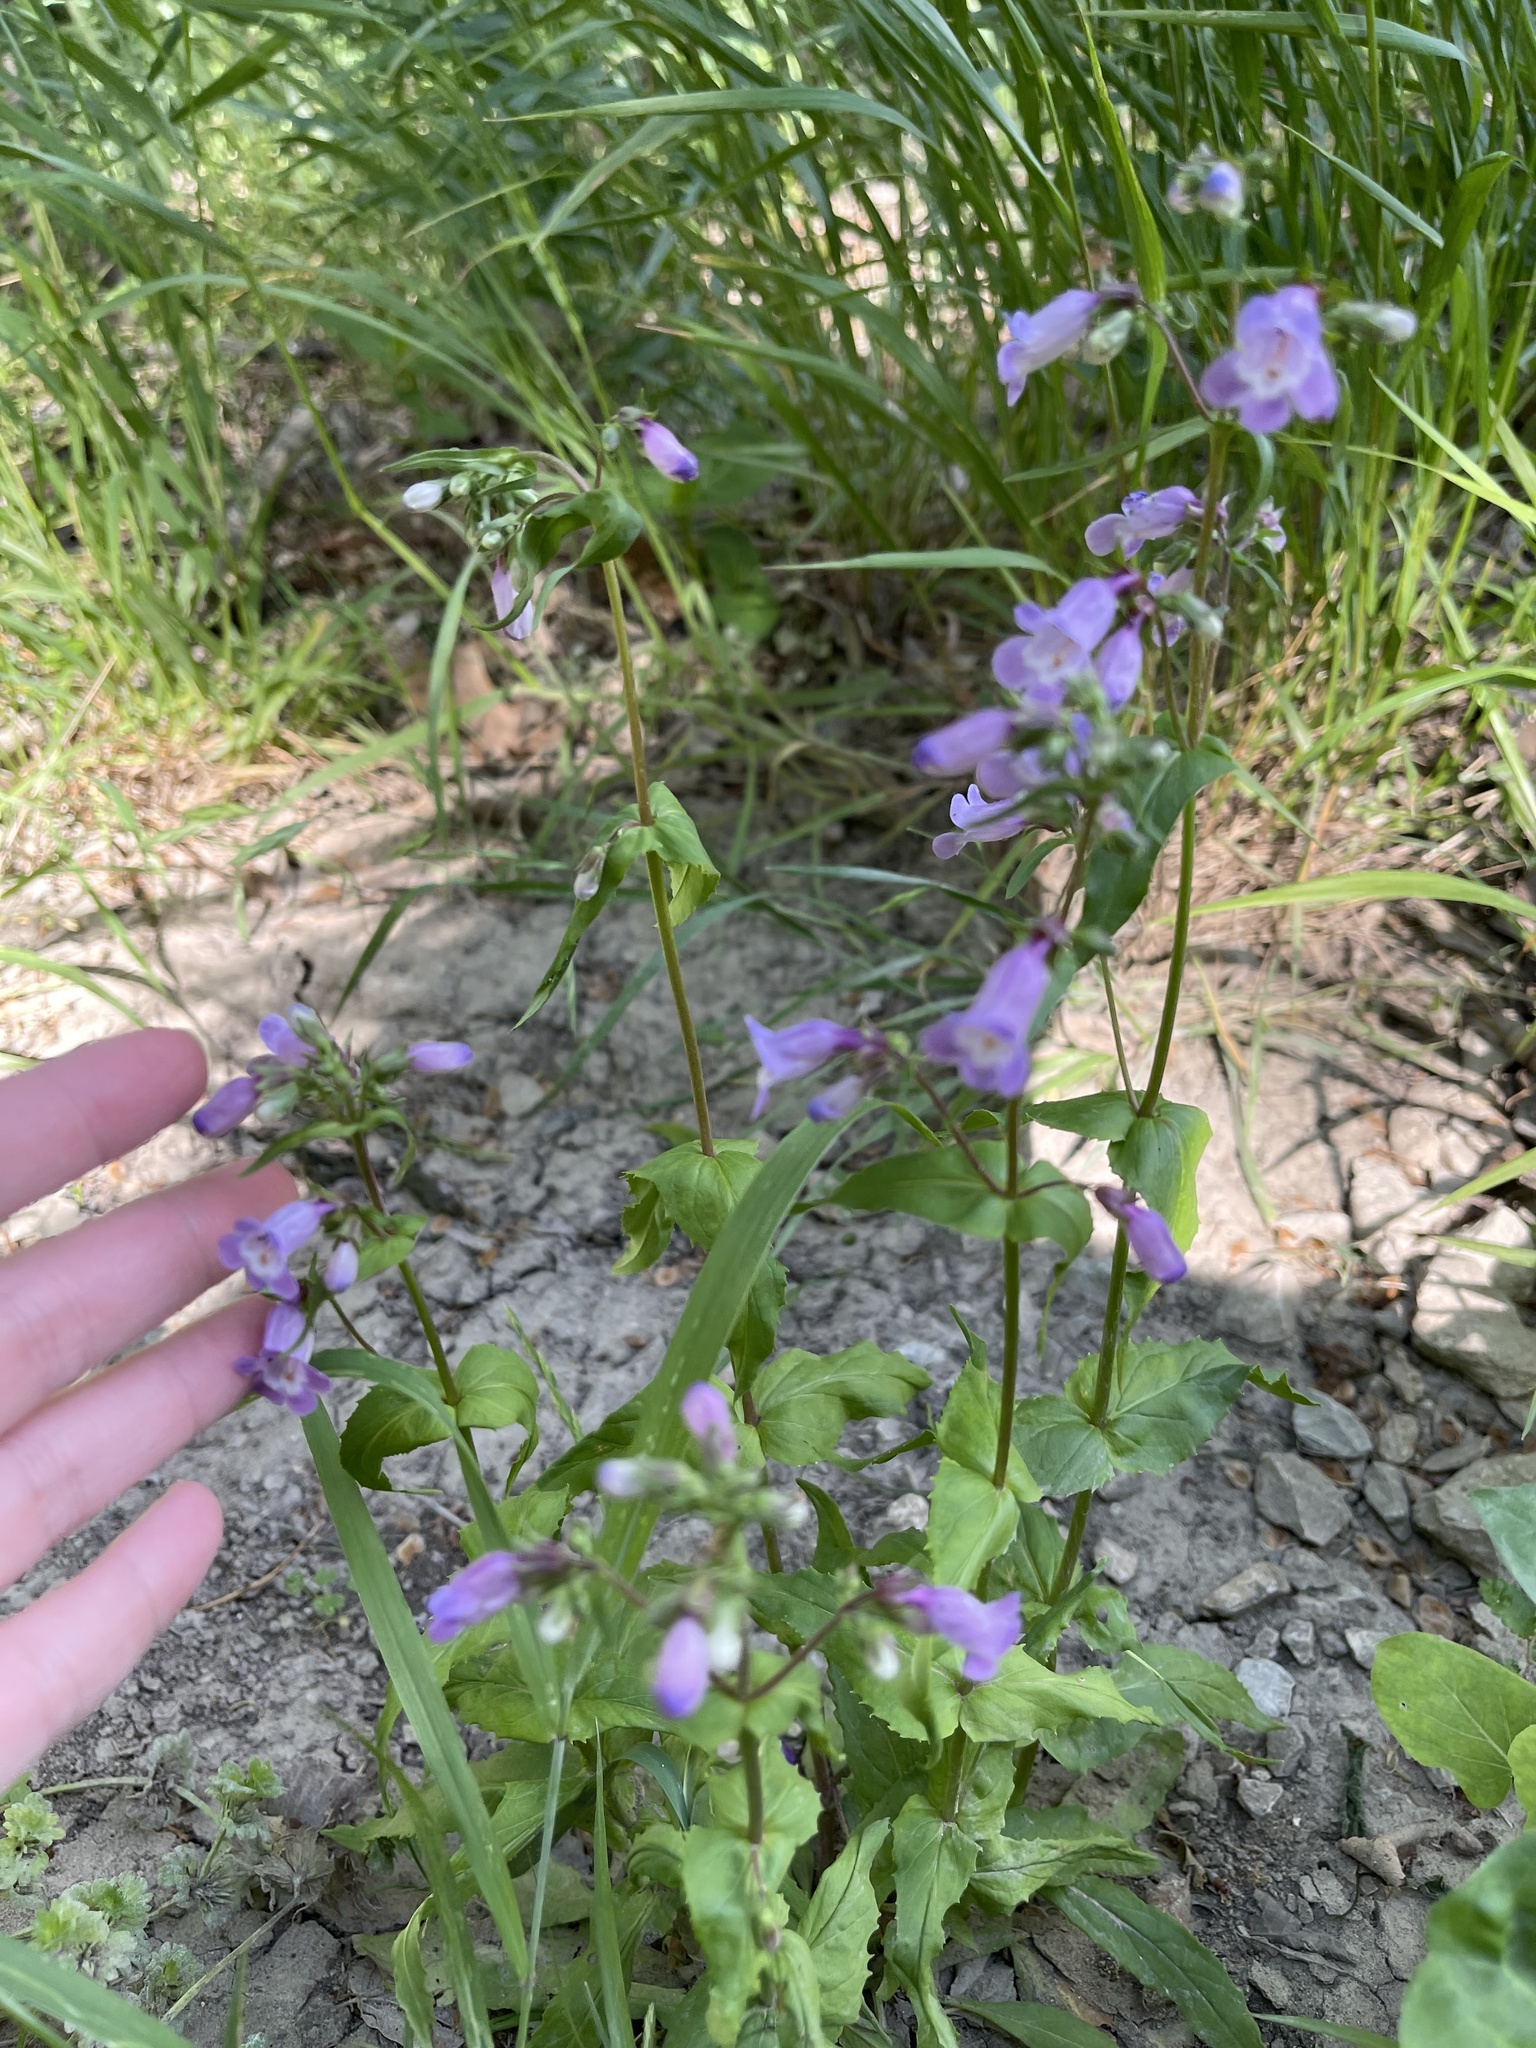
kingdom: Plantae
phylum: Tracheophyta
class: Magnoliopsida
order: Lamiales
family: Plantaginaceae
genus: Penstemon
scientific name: Penstemon tenuis
